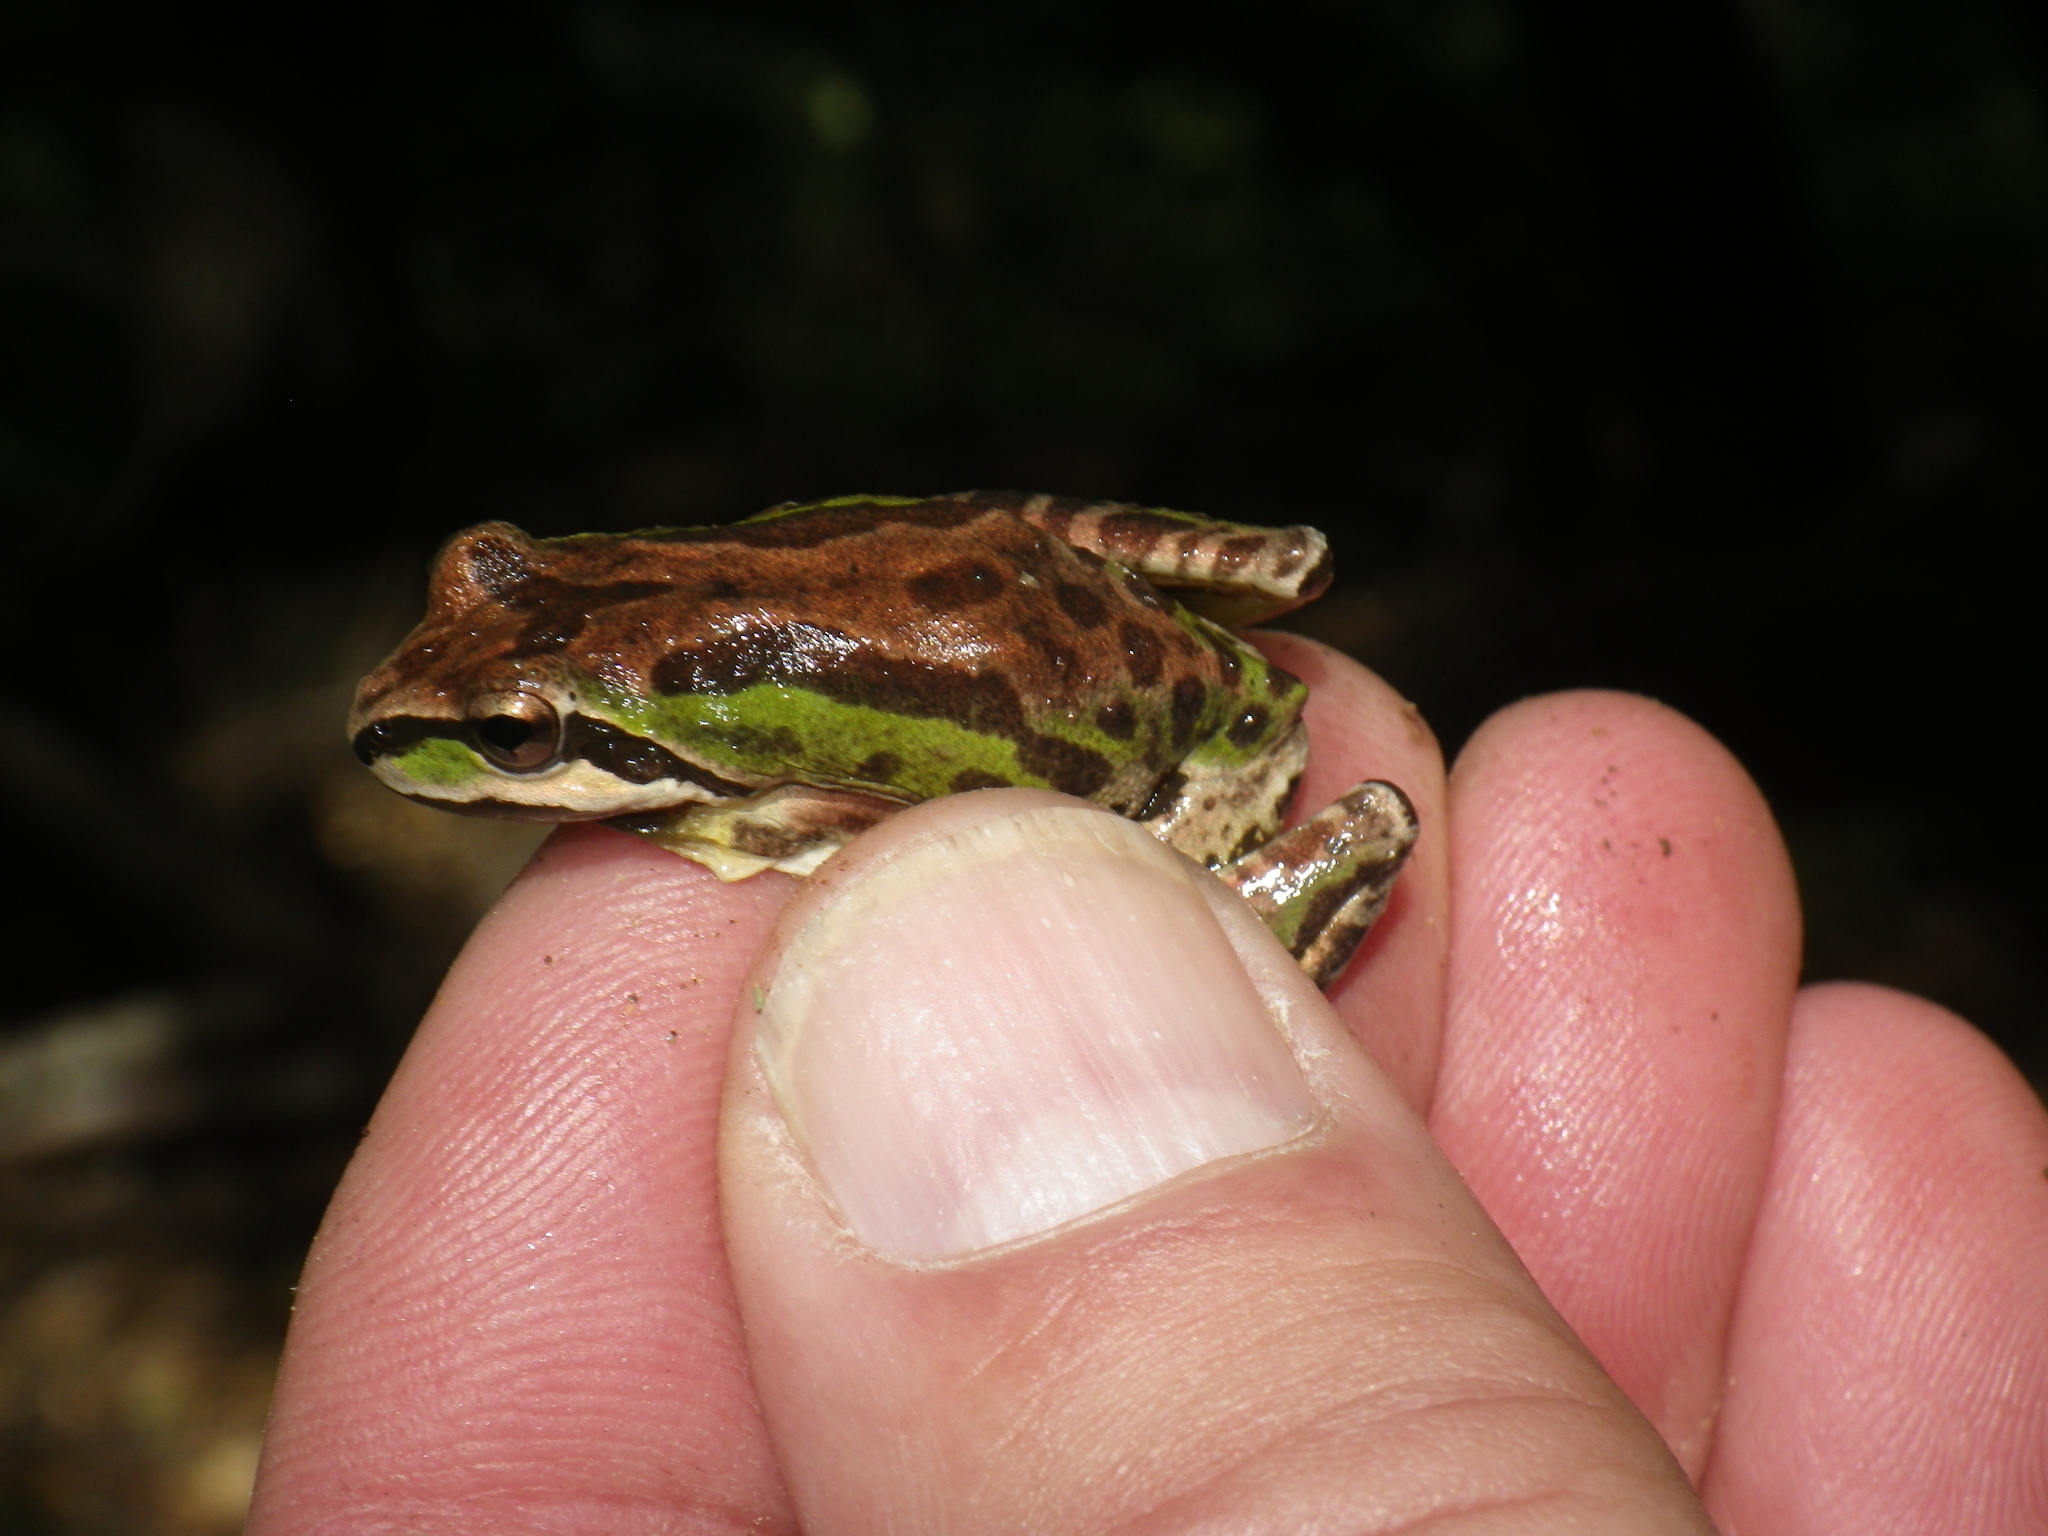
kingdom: Animalia
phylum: Chordata
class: Amphibia
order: Anura
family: Hylidae
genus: Pseudacris
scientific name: Pseudacris regilla
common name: Pacific chorus frog
